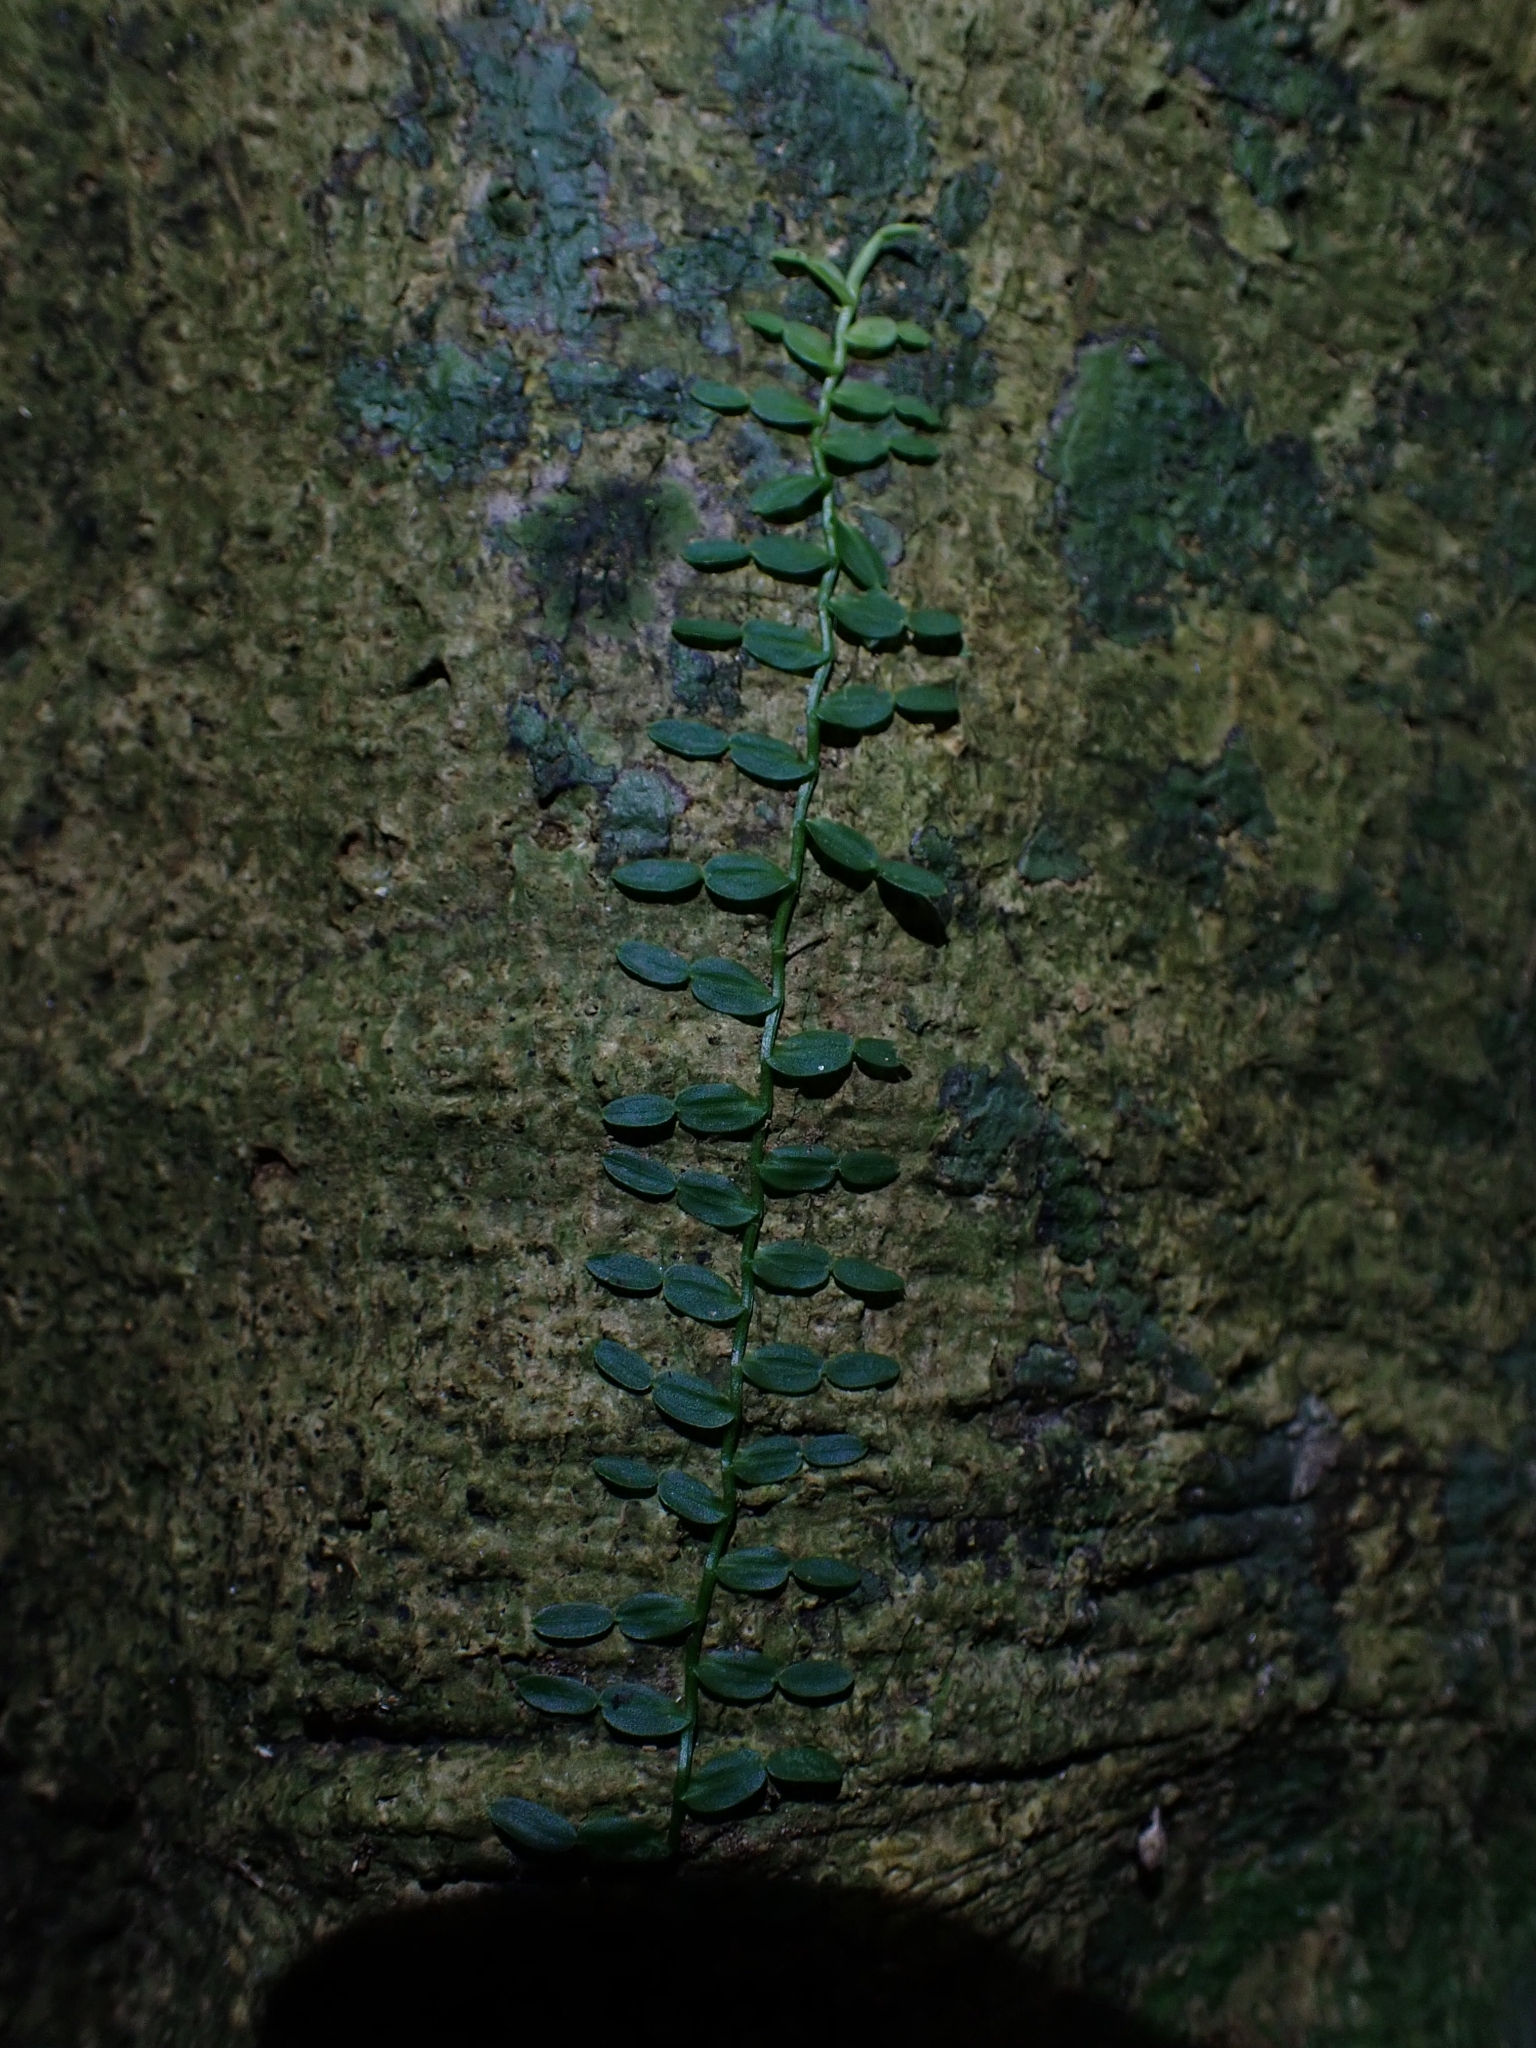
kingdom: Plantae
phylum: Tracheophyta
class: Liliopsida
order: Alismatales
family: Araceae
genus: Pothos
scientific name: Pothos longipes
